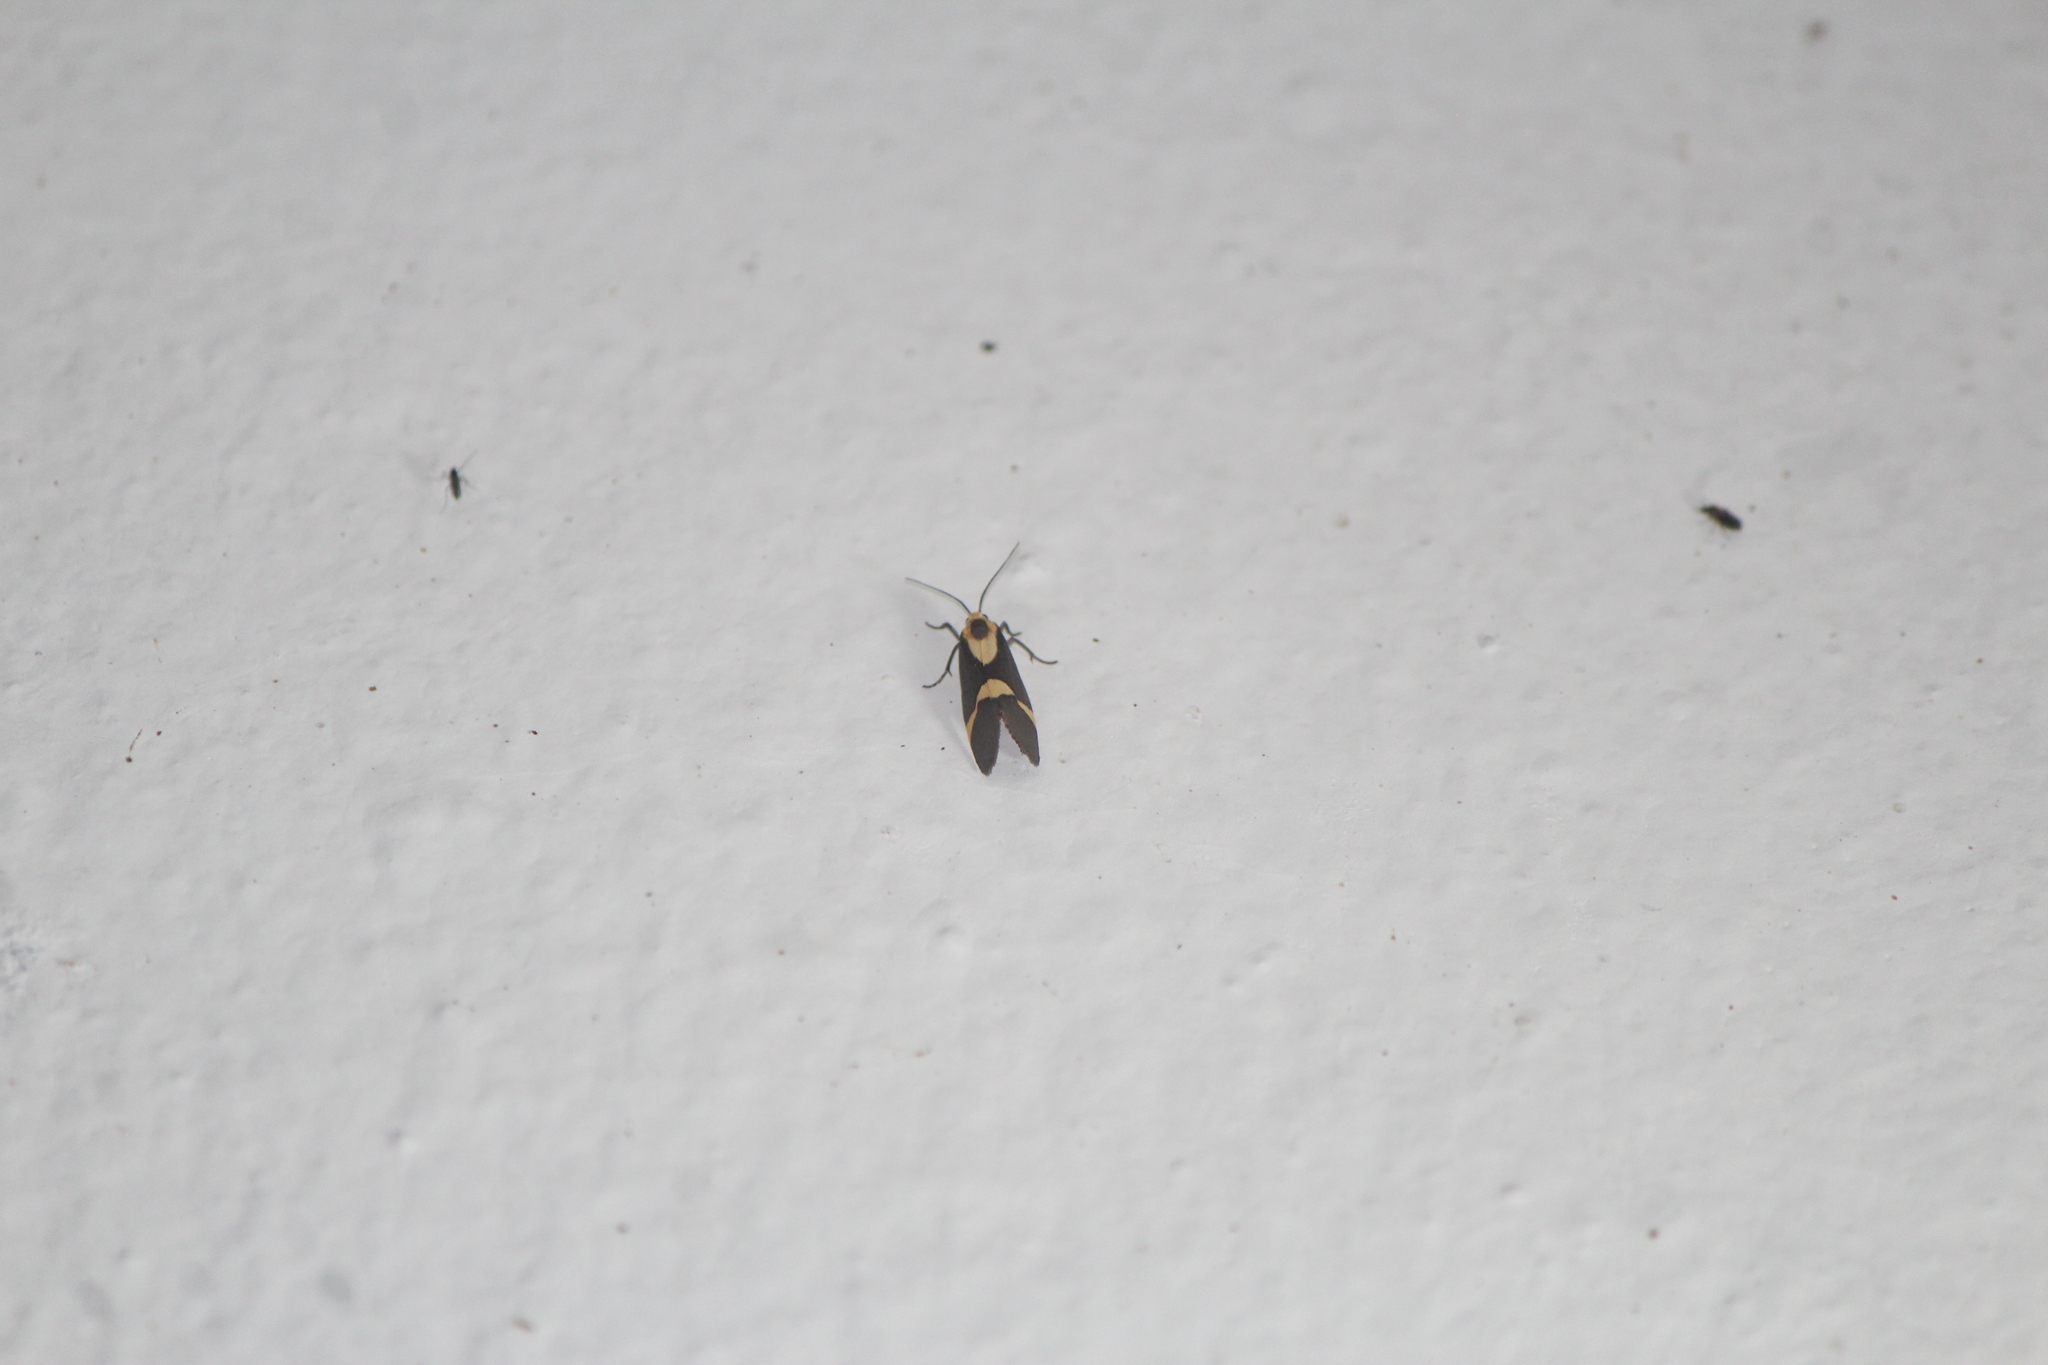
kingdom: Animalia
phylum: Arthropoda
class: Insecta
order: Lepidoptera
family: Erebidae
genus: Cisthene
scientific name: Cisthene subrufa
